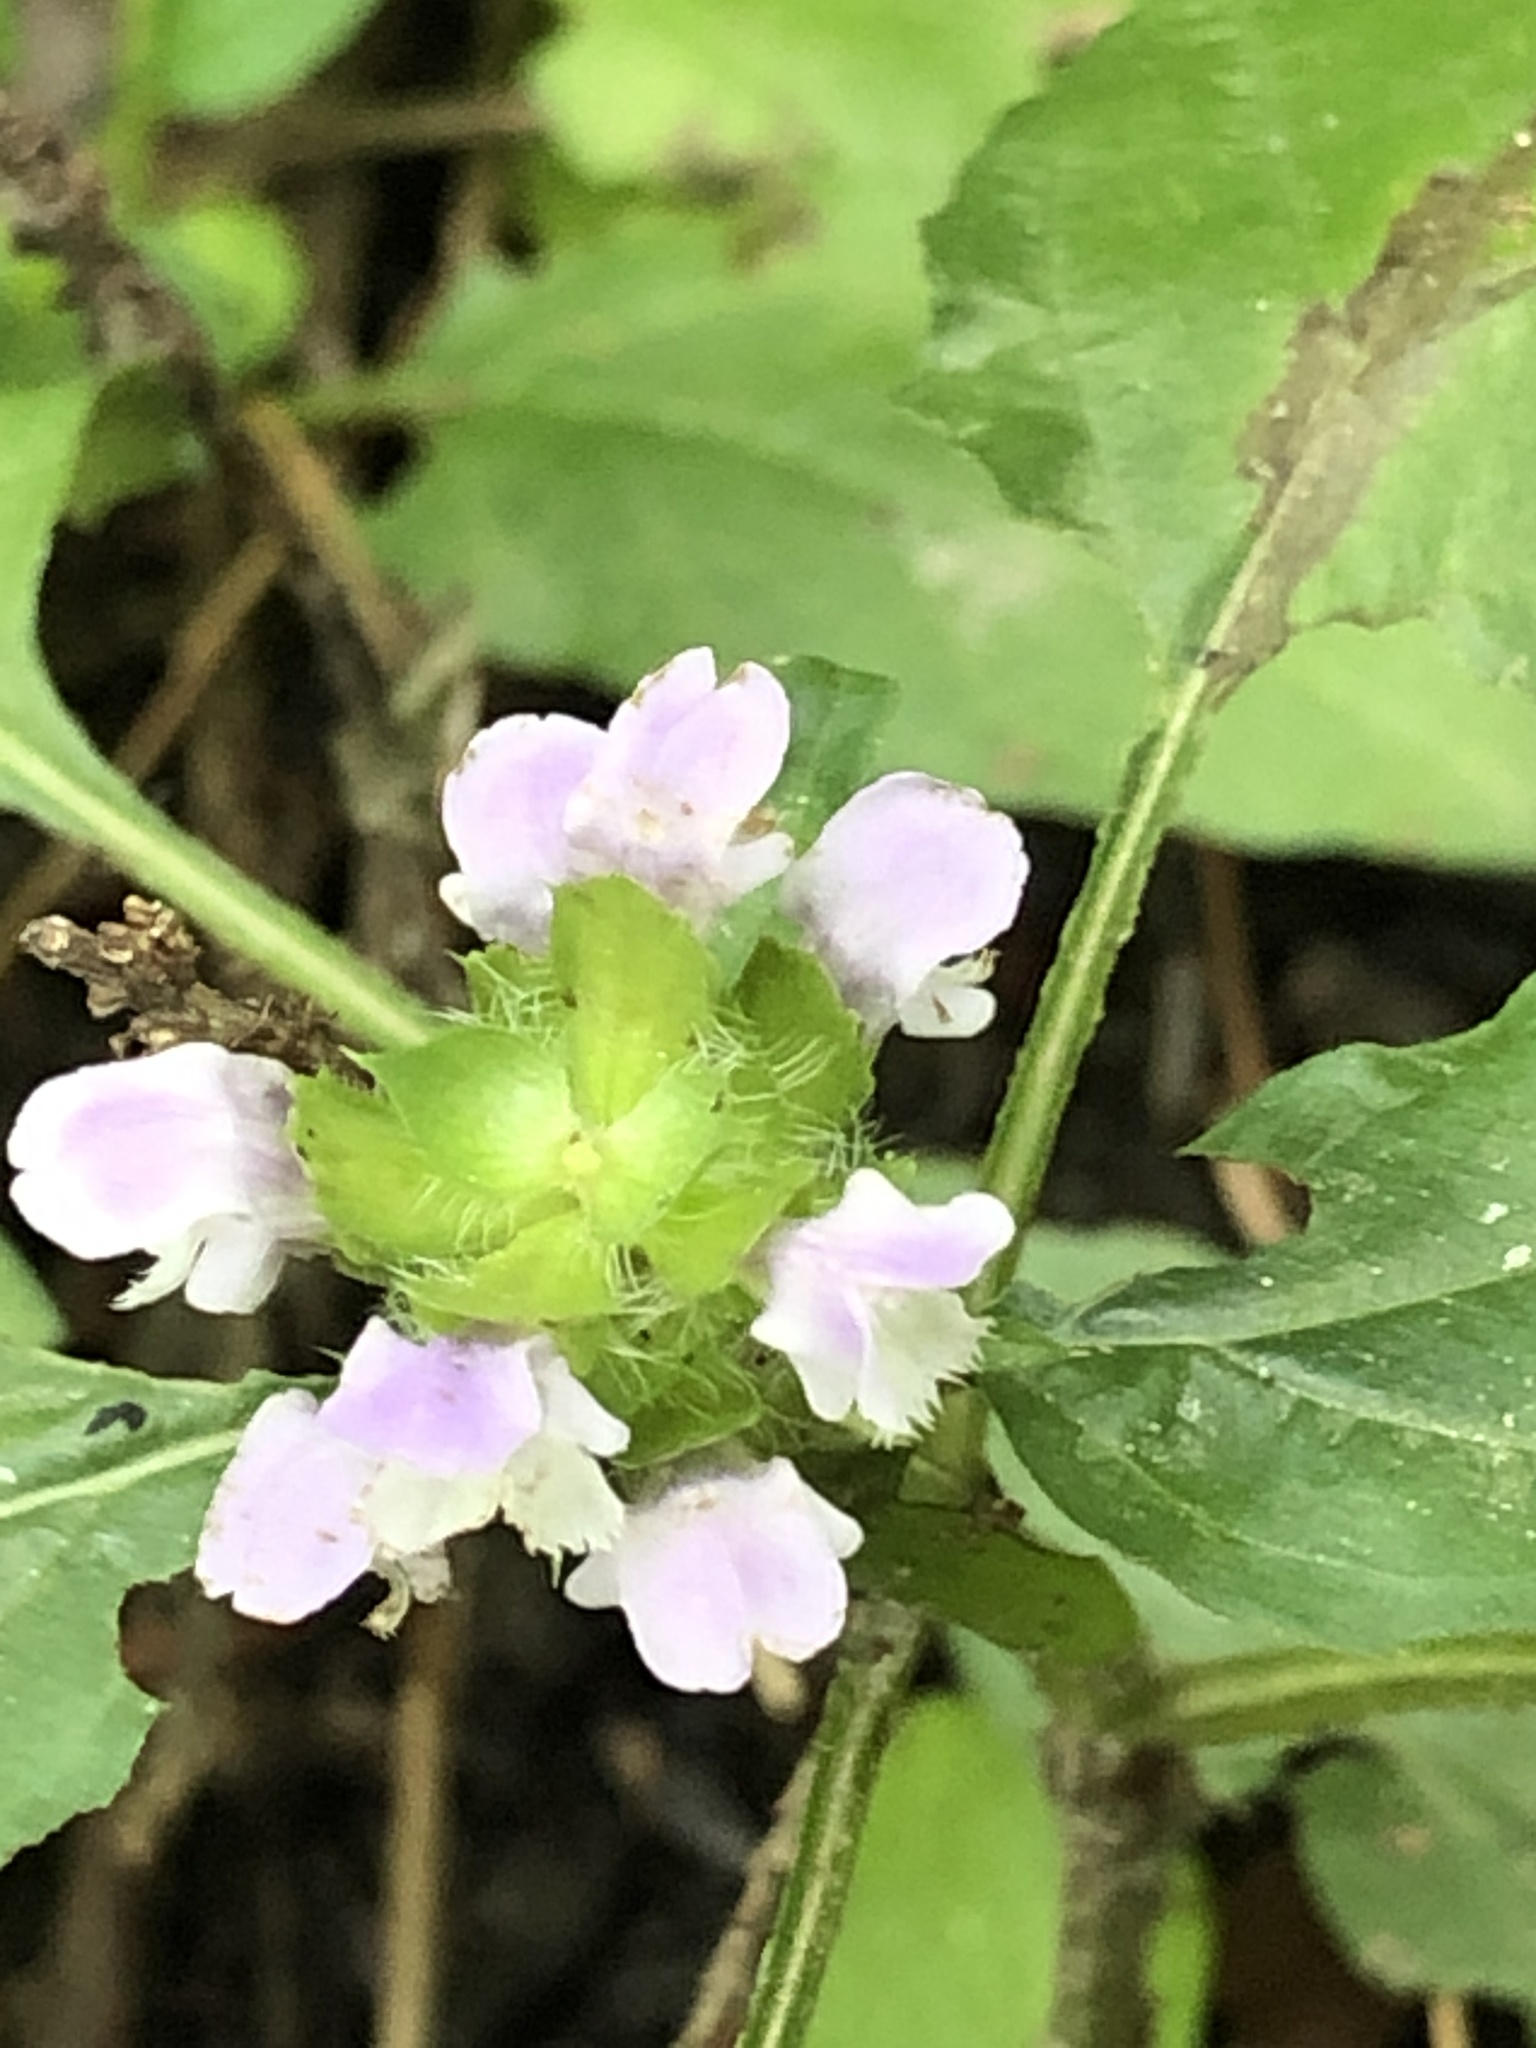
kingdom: Plantae
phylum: Tracheophyta
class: Magnoliopsida
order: Lamiales
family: Lamiaceae
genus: Prunella
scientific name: Prunella vulgaris
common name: Heal-all
